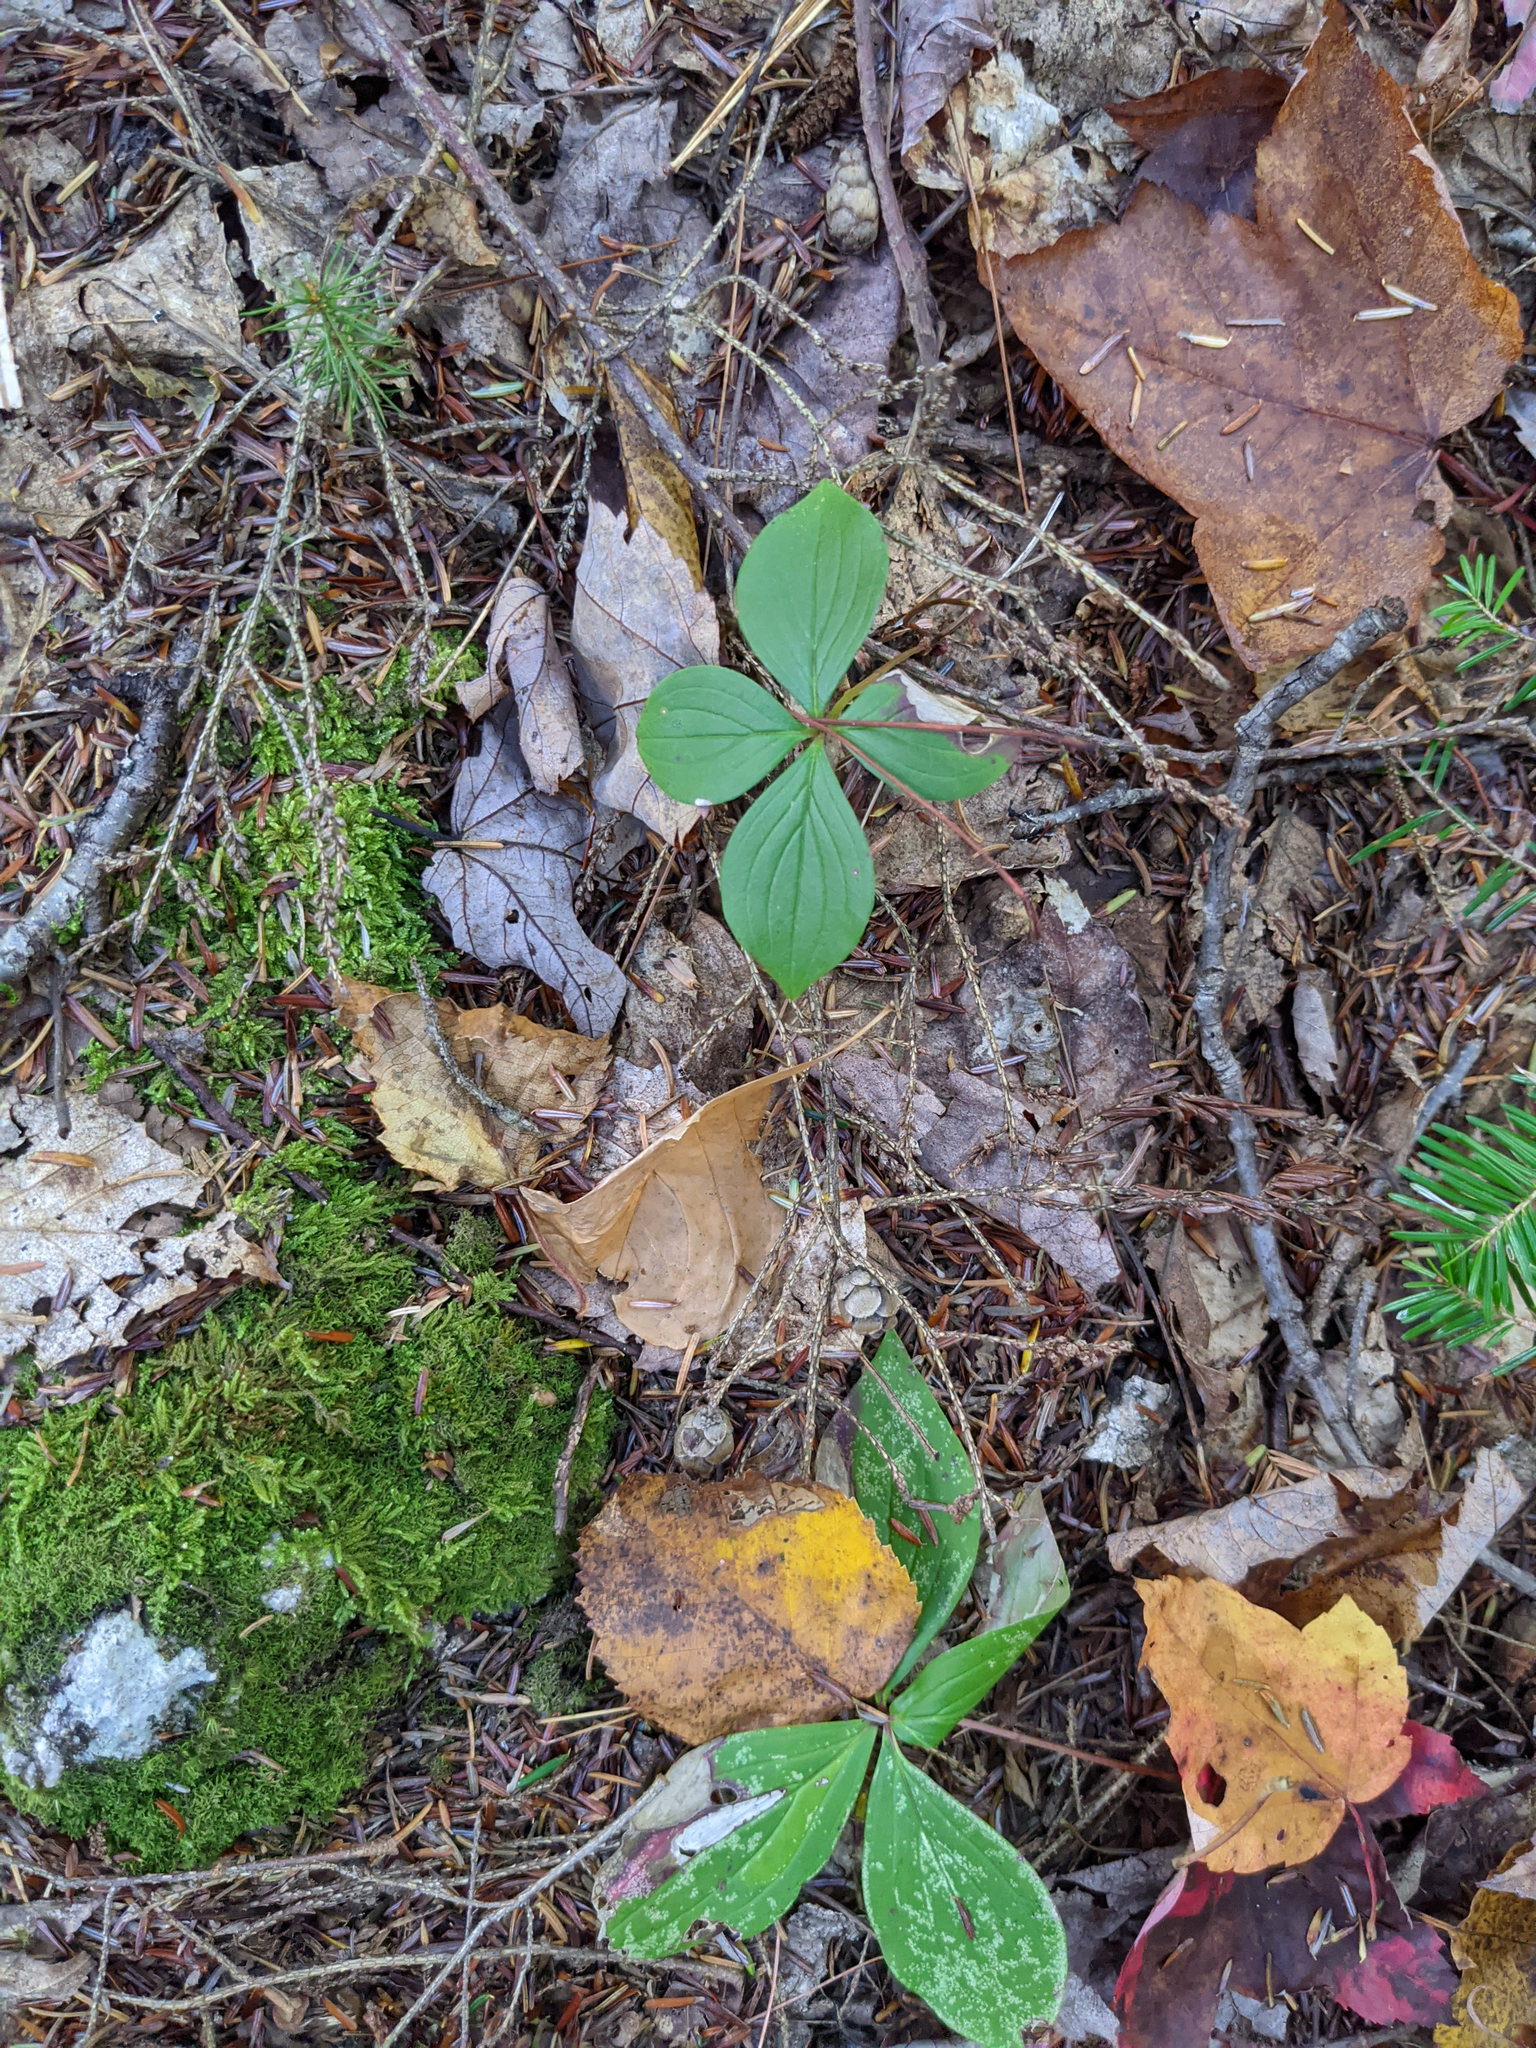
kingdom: Plantae
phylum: Tracheophyta
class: Magnoliopsida
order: Cornales
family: Cornaceae
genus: Cornus
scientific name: Cornus canadensis
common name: Creeping dogwood
